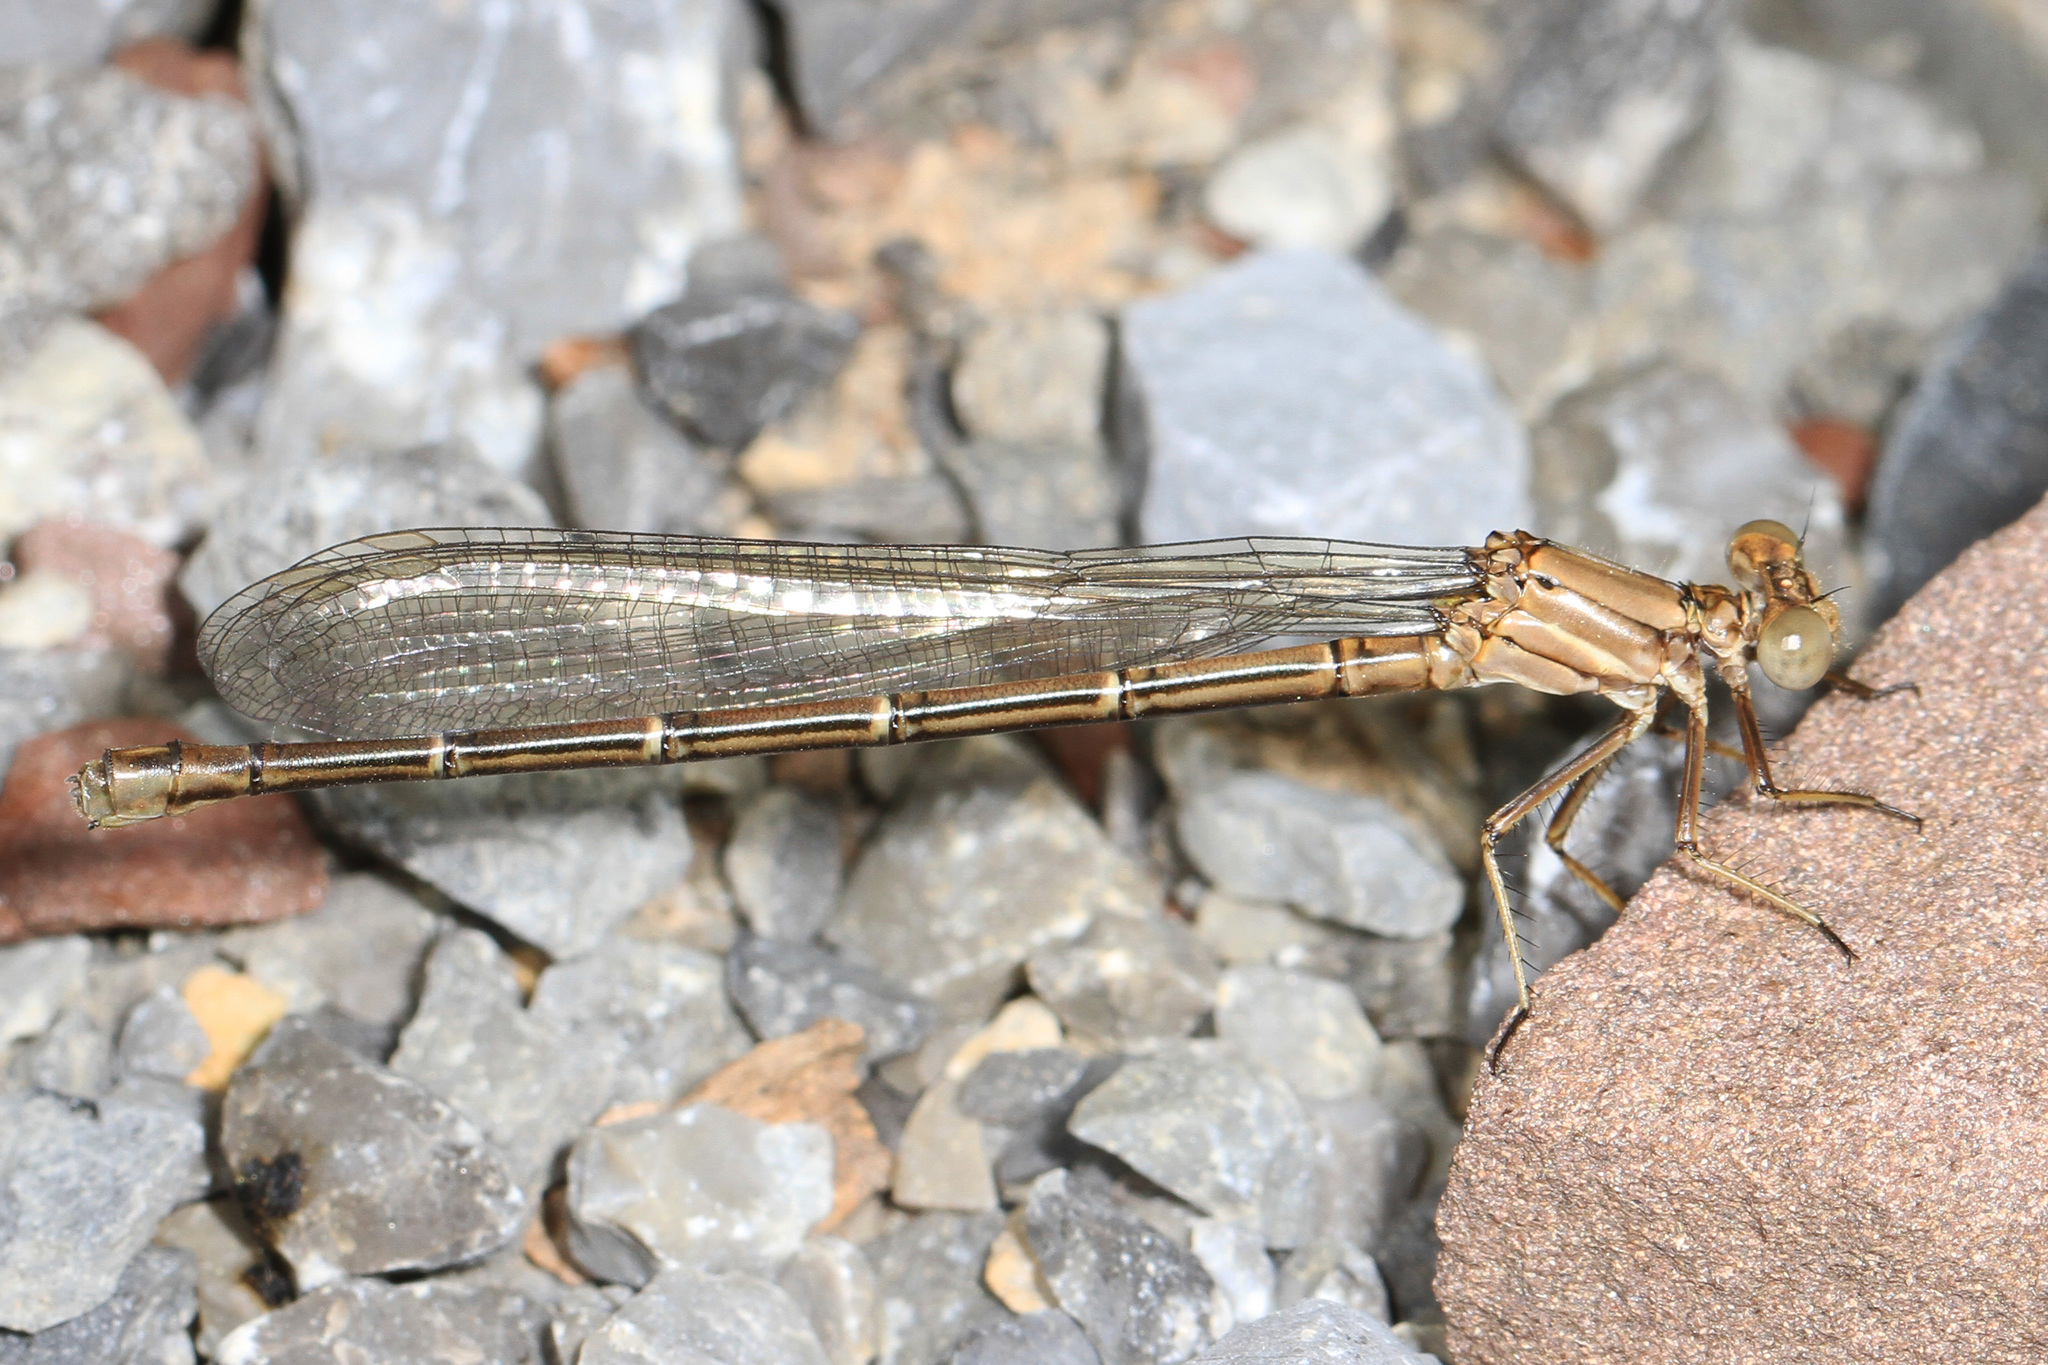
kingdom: Animalia
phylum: Arthropoda
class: Insecta
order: Odonata
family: Coenagrionidae
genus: Argia
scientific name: Argia moesta
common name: Powdered dancer
